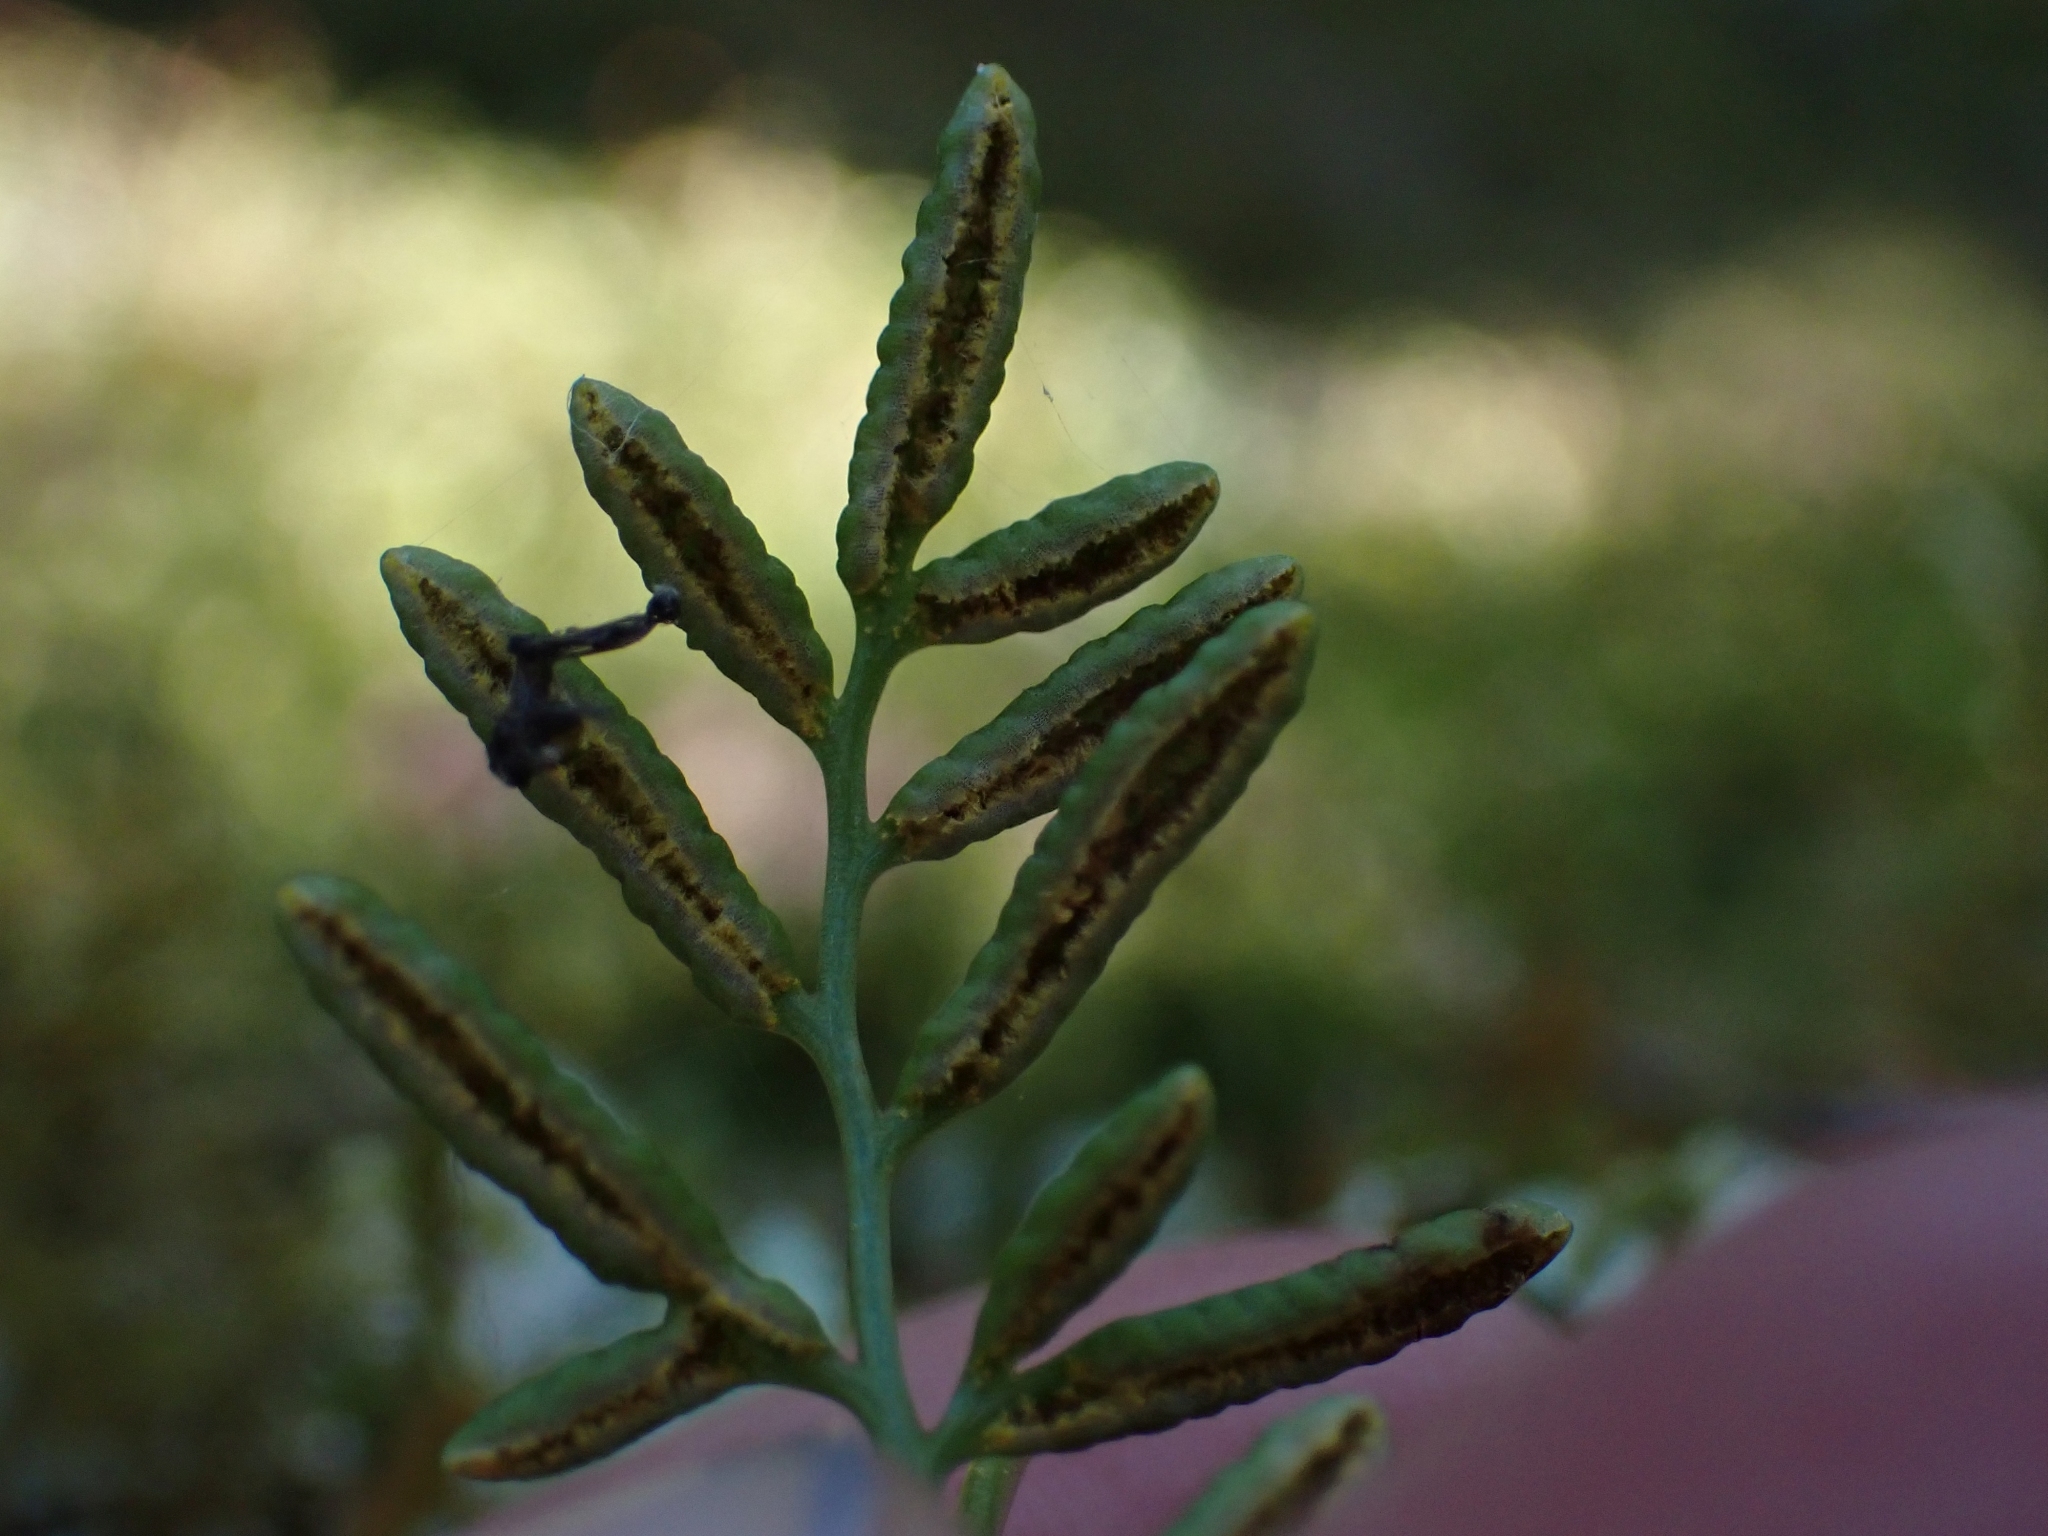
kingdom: Plantae
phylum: Tracheophyta
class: Polypodiopsida
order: Polypodiales
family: Pteridaceae
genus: Cryptogramma
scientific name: Cryptogramma acrostichoides
